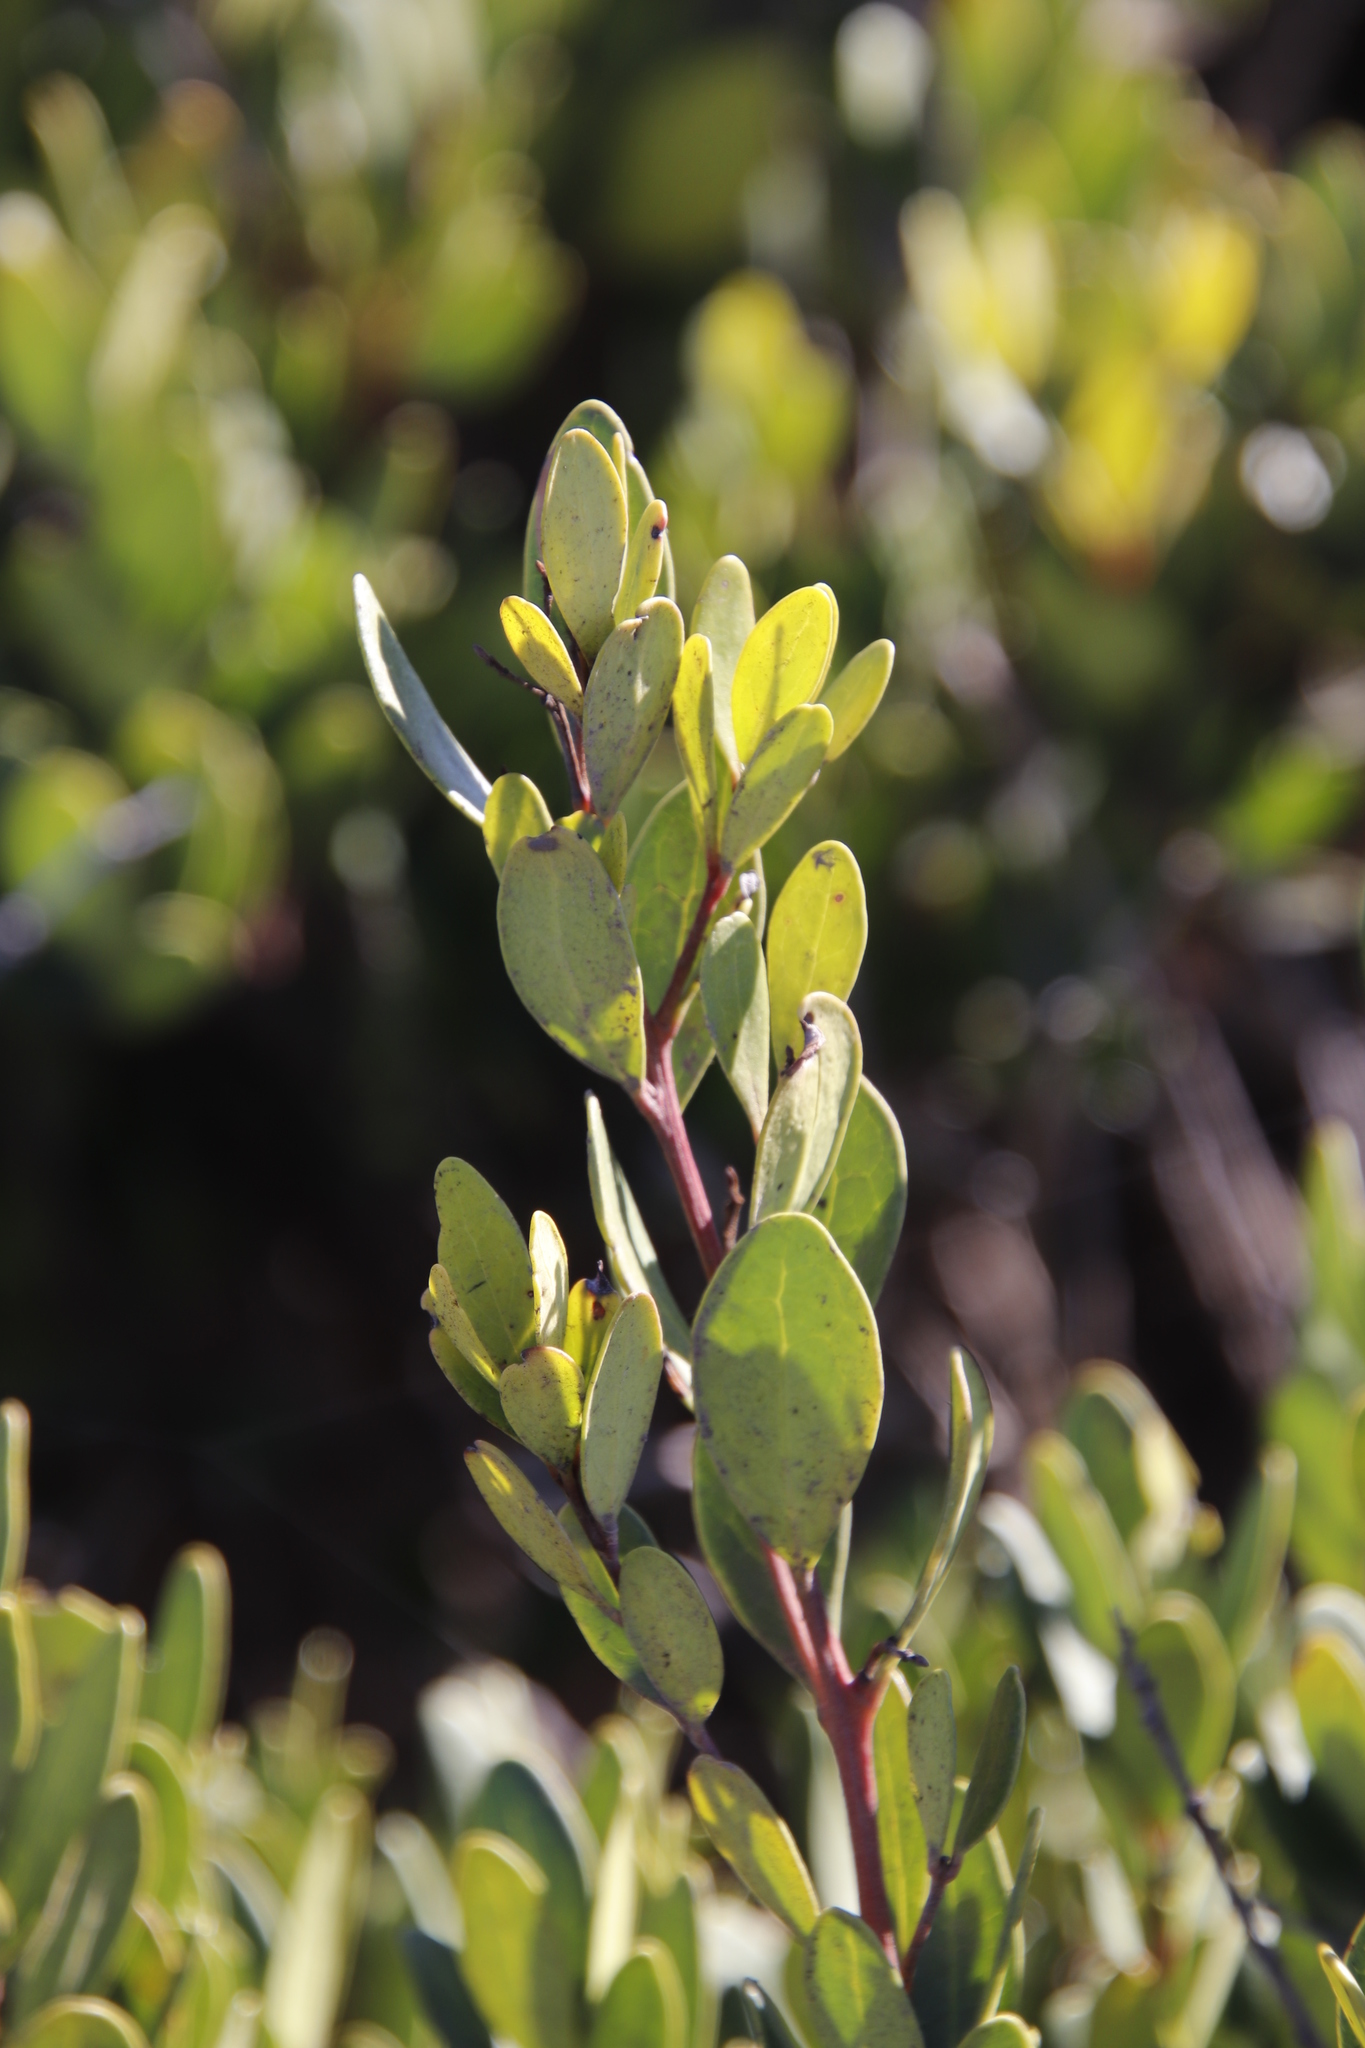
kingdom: Plantae
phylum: Tracheophyta
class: Magnoliopsida
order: Ericales
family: Ebenaceae
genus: Euclea
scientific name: Euclea racemosa
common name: Dune guarri
